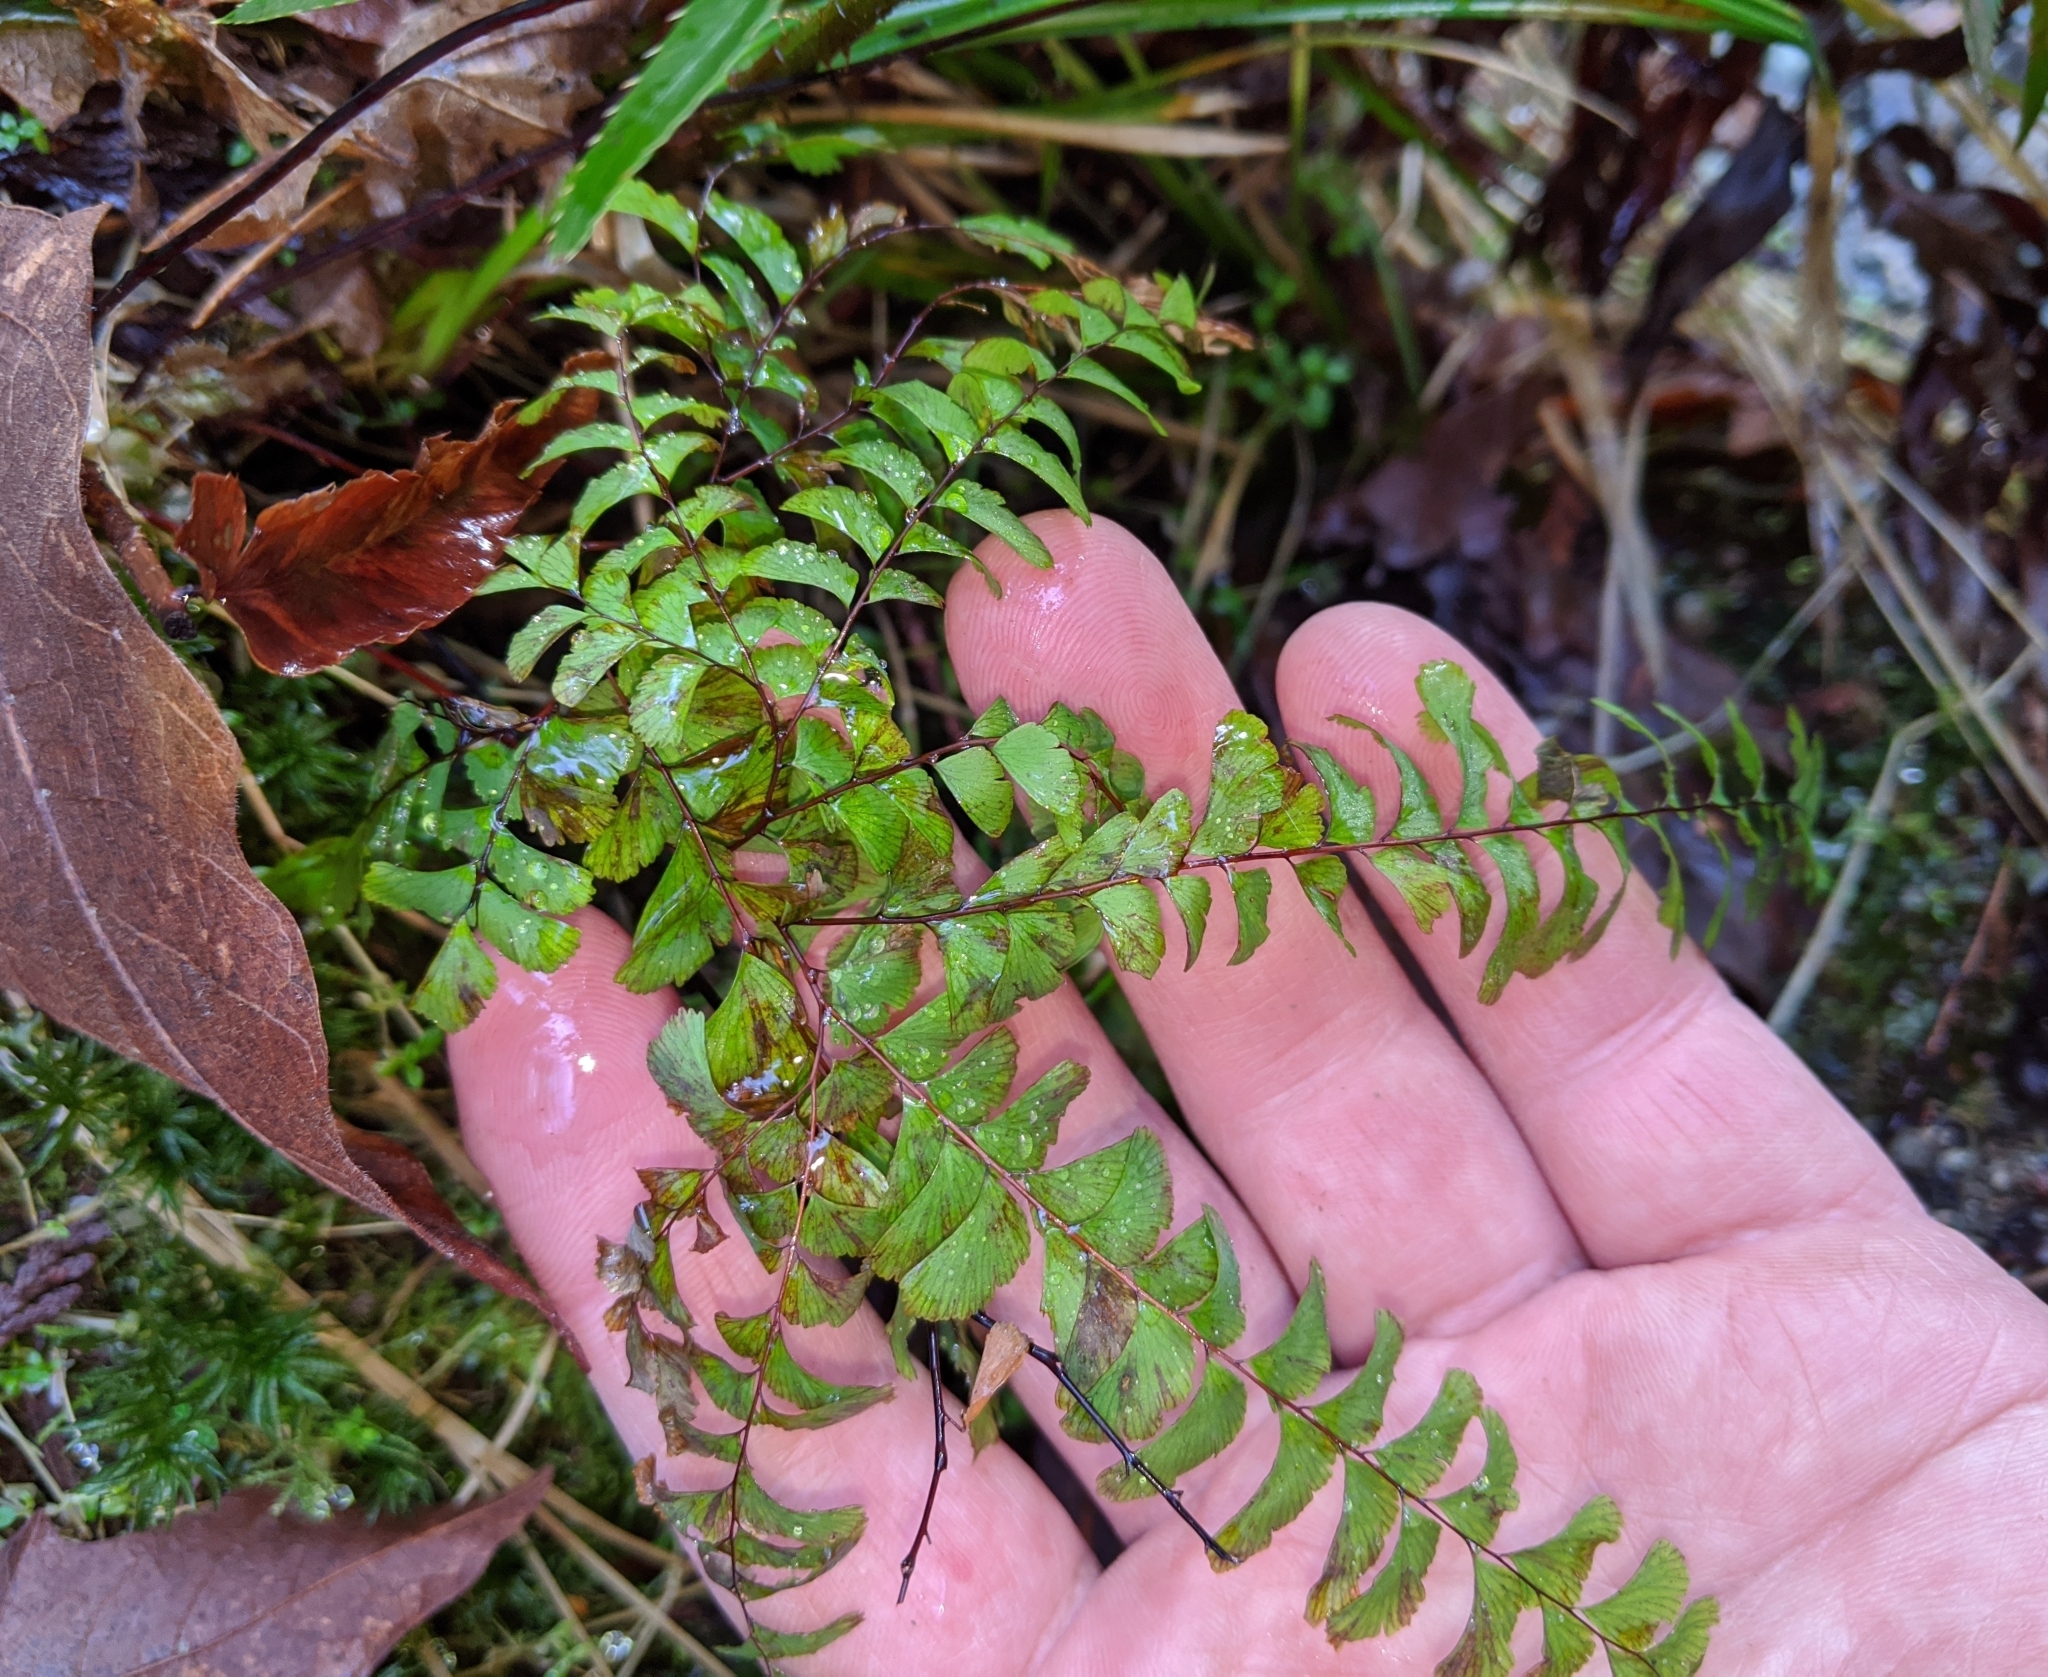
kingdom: Plantae
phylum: Tracheophyta
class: Polypodiopsida
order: Polypodiales
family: Pteridaceae
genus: Adiantum
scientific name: Adiantum aleuticum
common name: Aleutian maidenhair fern
